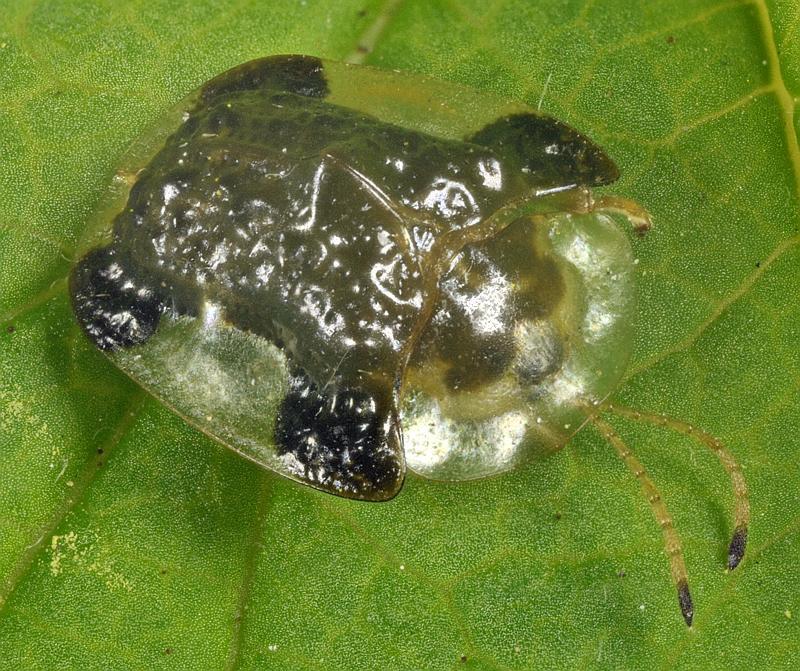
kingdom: Animalia
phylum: Arthropoda
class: Insecta
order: Coleoptera
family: Chrysomelidae
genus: Helocassis
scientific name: Helocassis clavata
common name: Clavate tortoise beetle
